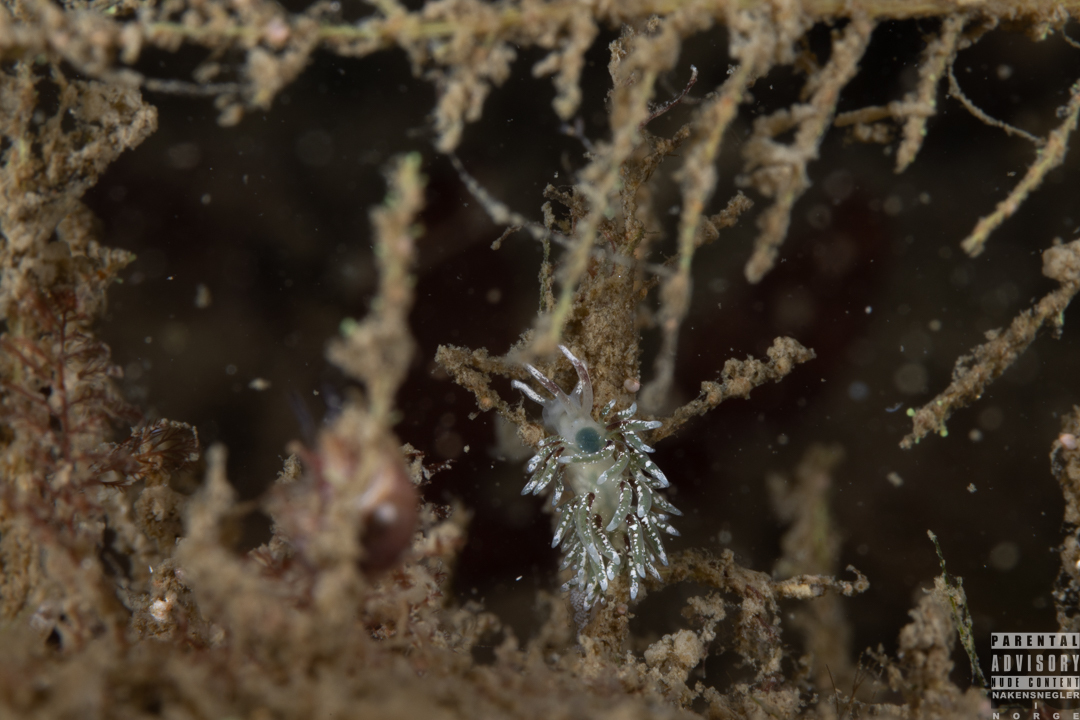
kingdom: Animalia
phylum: Mollusca
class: Gastropoda
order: Nudibranchia
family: Trinchesiidae
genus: Rubramoena
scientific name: Rubramoena rubescens
